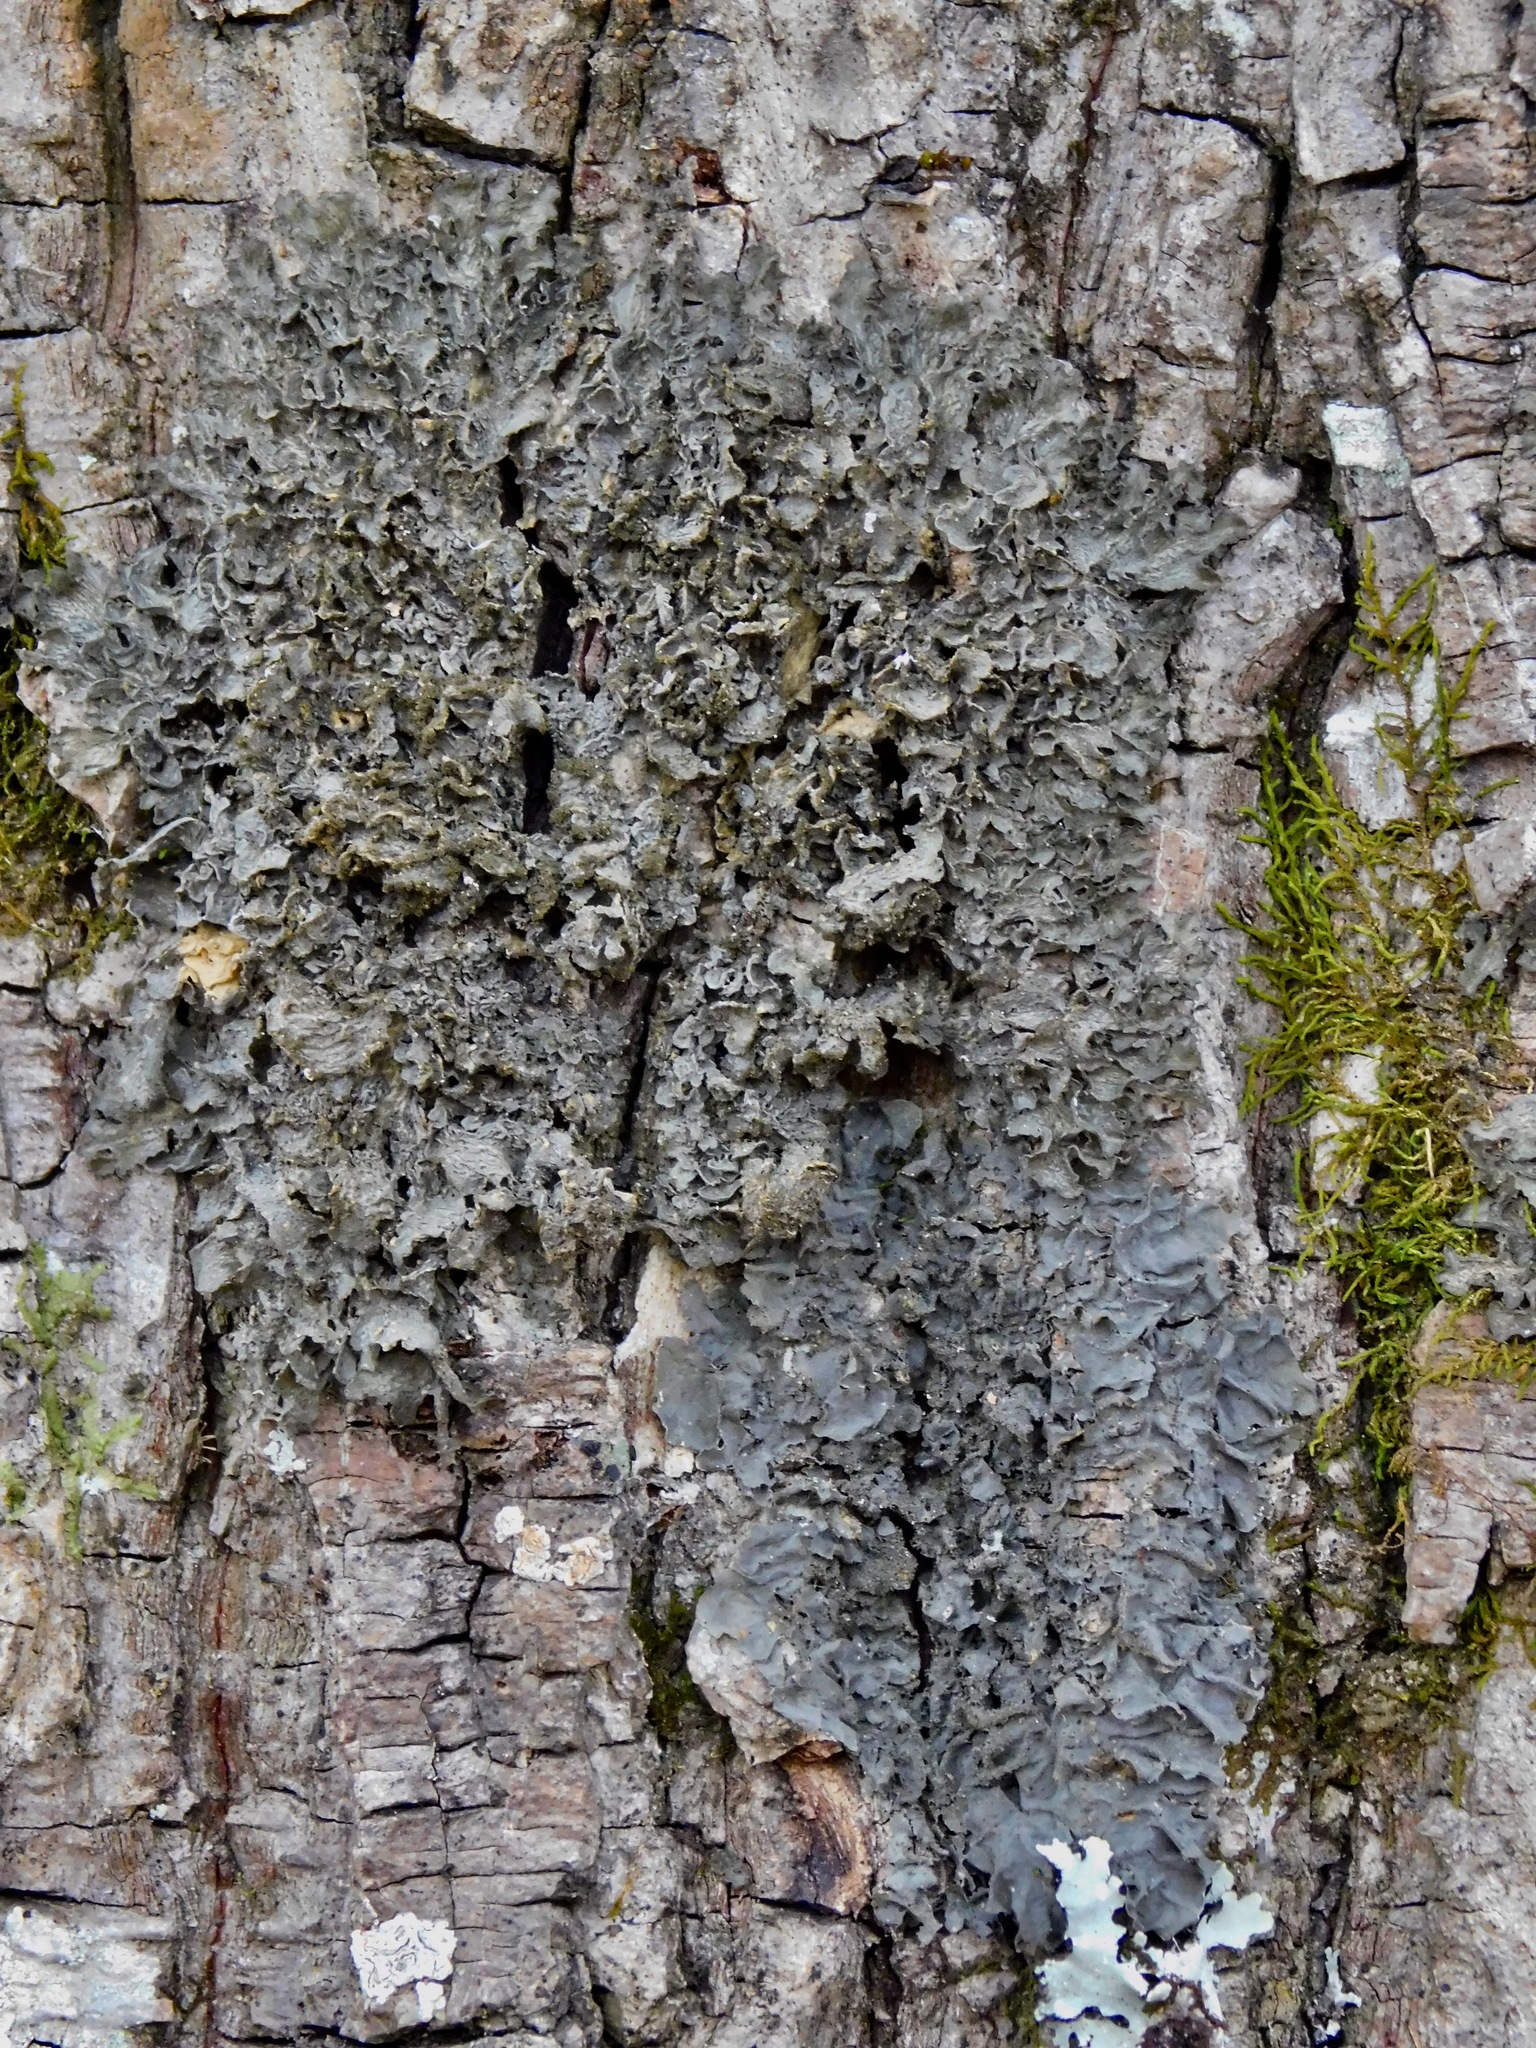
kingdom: Fungi
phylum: Ascomycota
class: Lecanoromycetes
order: Peltigerales
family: Collemataceae
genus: Leptogium
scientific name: Leptogium cyanescens
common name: Blue jellyskin
